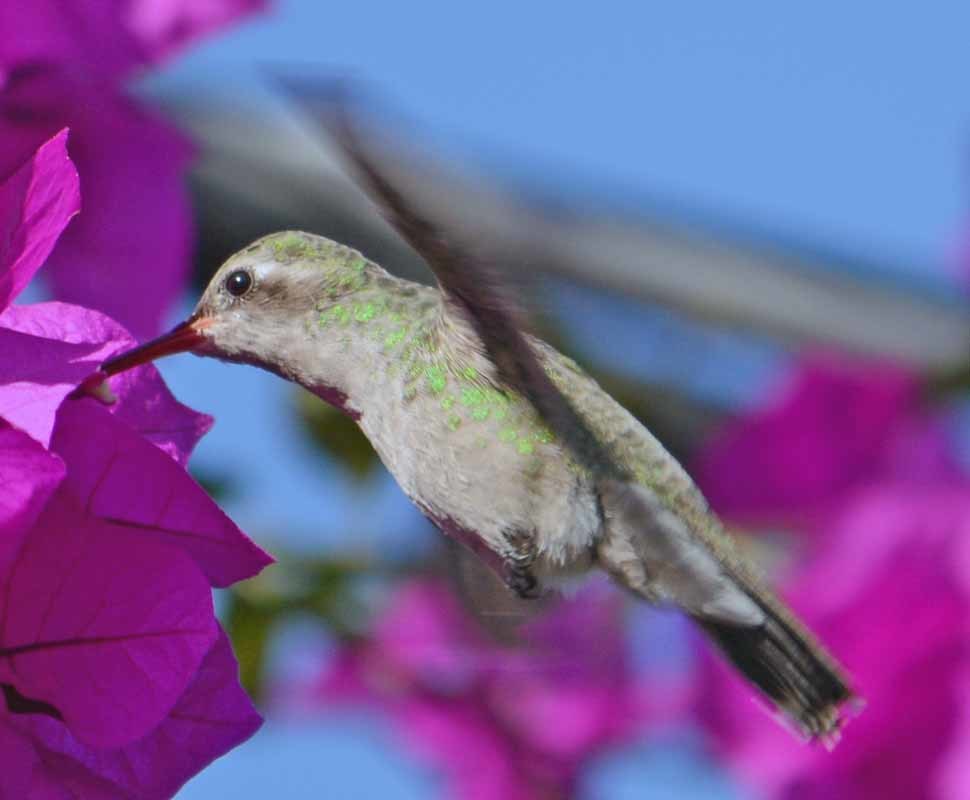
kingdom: Animalia
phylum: Chordata
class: Aves
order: Apodiformes
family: Trochilidae
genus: Cynanthus
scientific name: Cynanthus latirostris
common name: Broad-billed hummingbird
